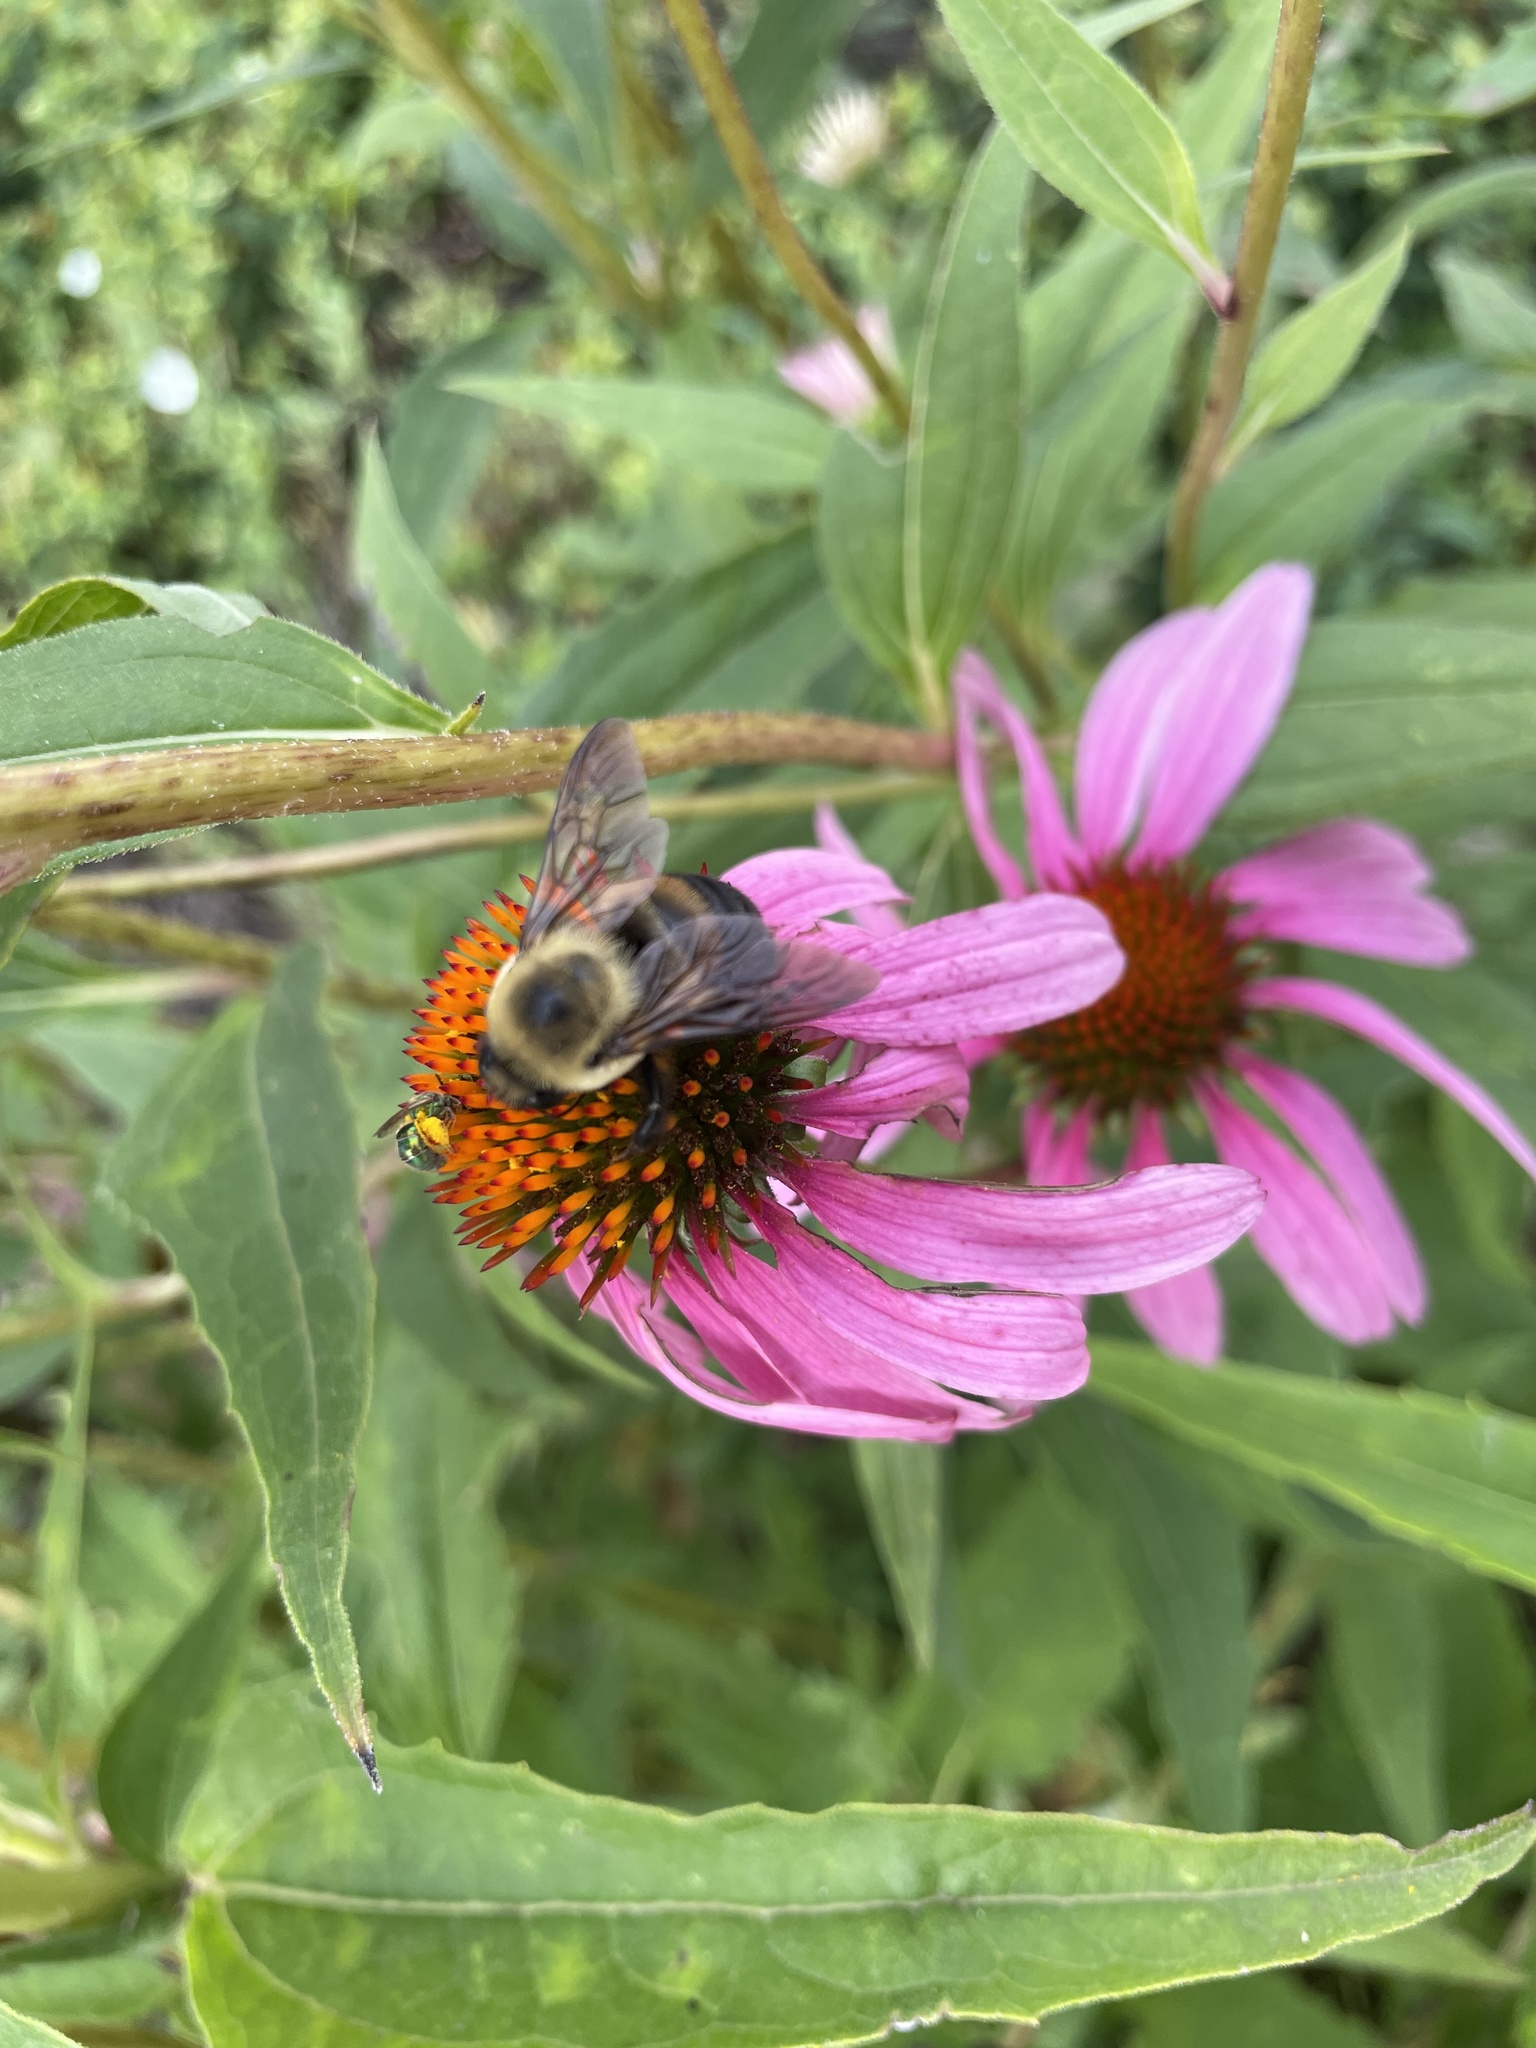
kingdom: Animalia
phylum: Arthropoda
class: Insecta
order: Hymenoptera
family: Apidae
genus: Bombus
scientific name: Bombus griseocollis
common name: Brown-belted bumble bee
